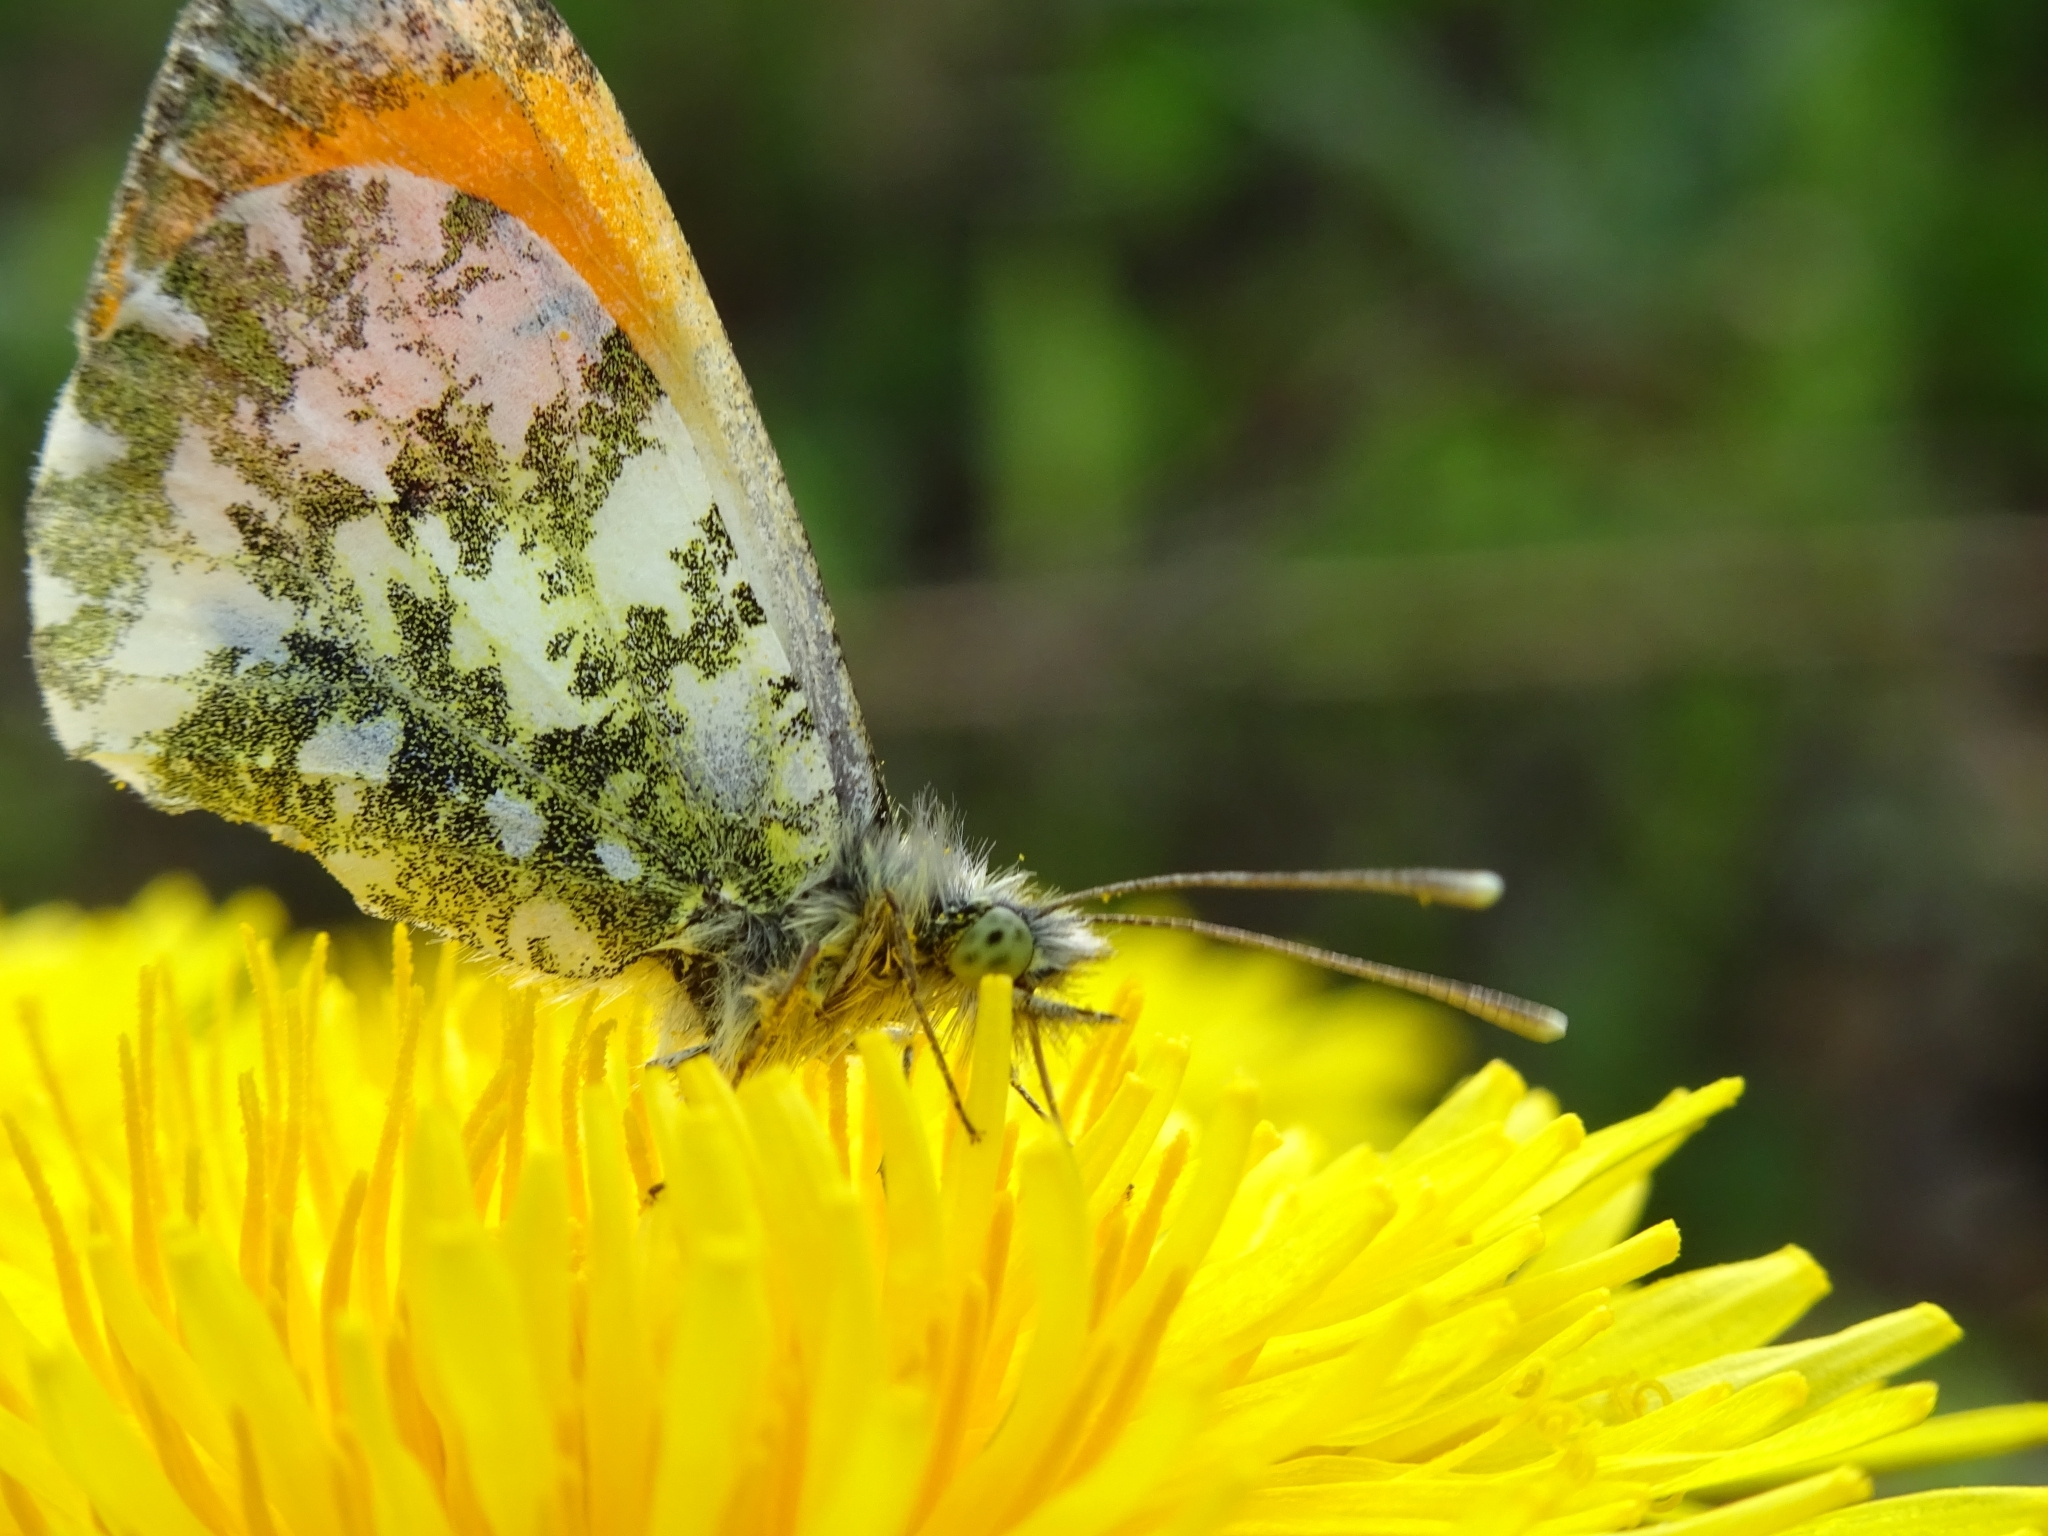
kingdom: Animalia
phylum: Arthropoda
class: Insecta
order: Lepidoptera
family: Pieridae
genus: Anthocharis
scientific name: Anthocharis cardamines
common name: Orange-tip
